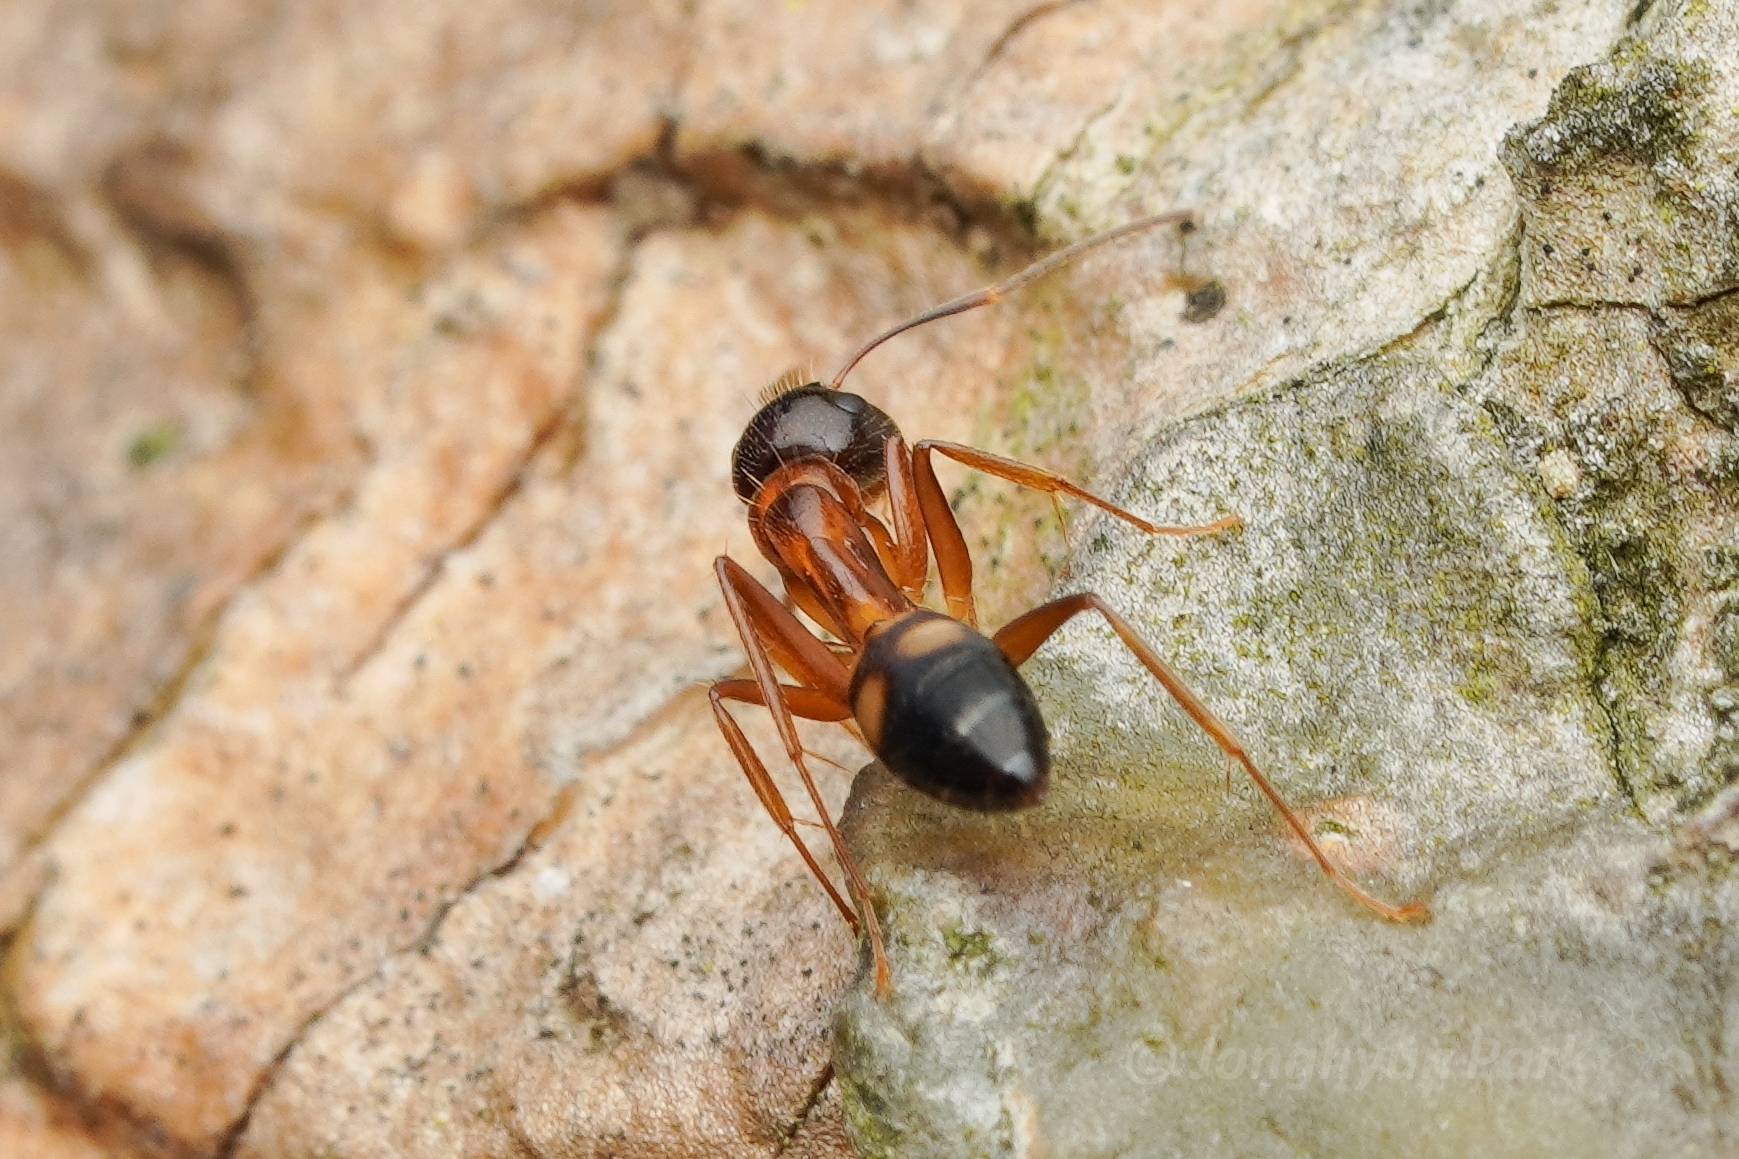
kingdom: Animalia
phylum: Arthropoda
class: Insecta
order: Hymenoptera
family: Formicidae
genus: Camponotus
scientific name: Camponotus albosparsus
